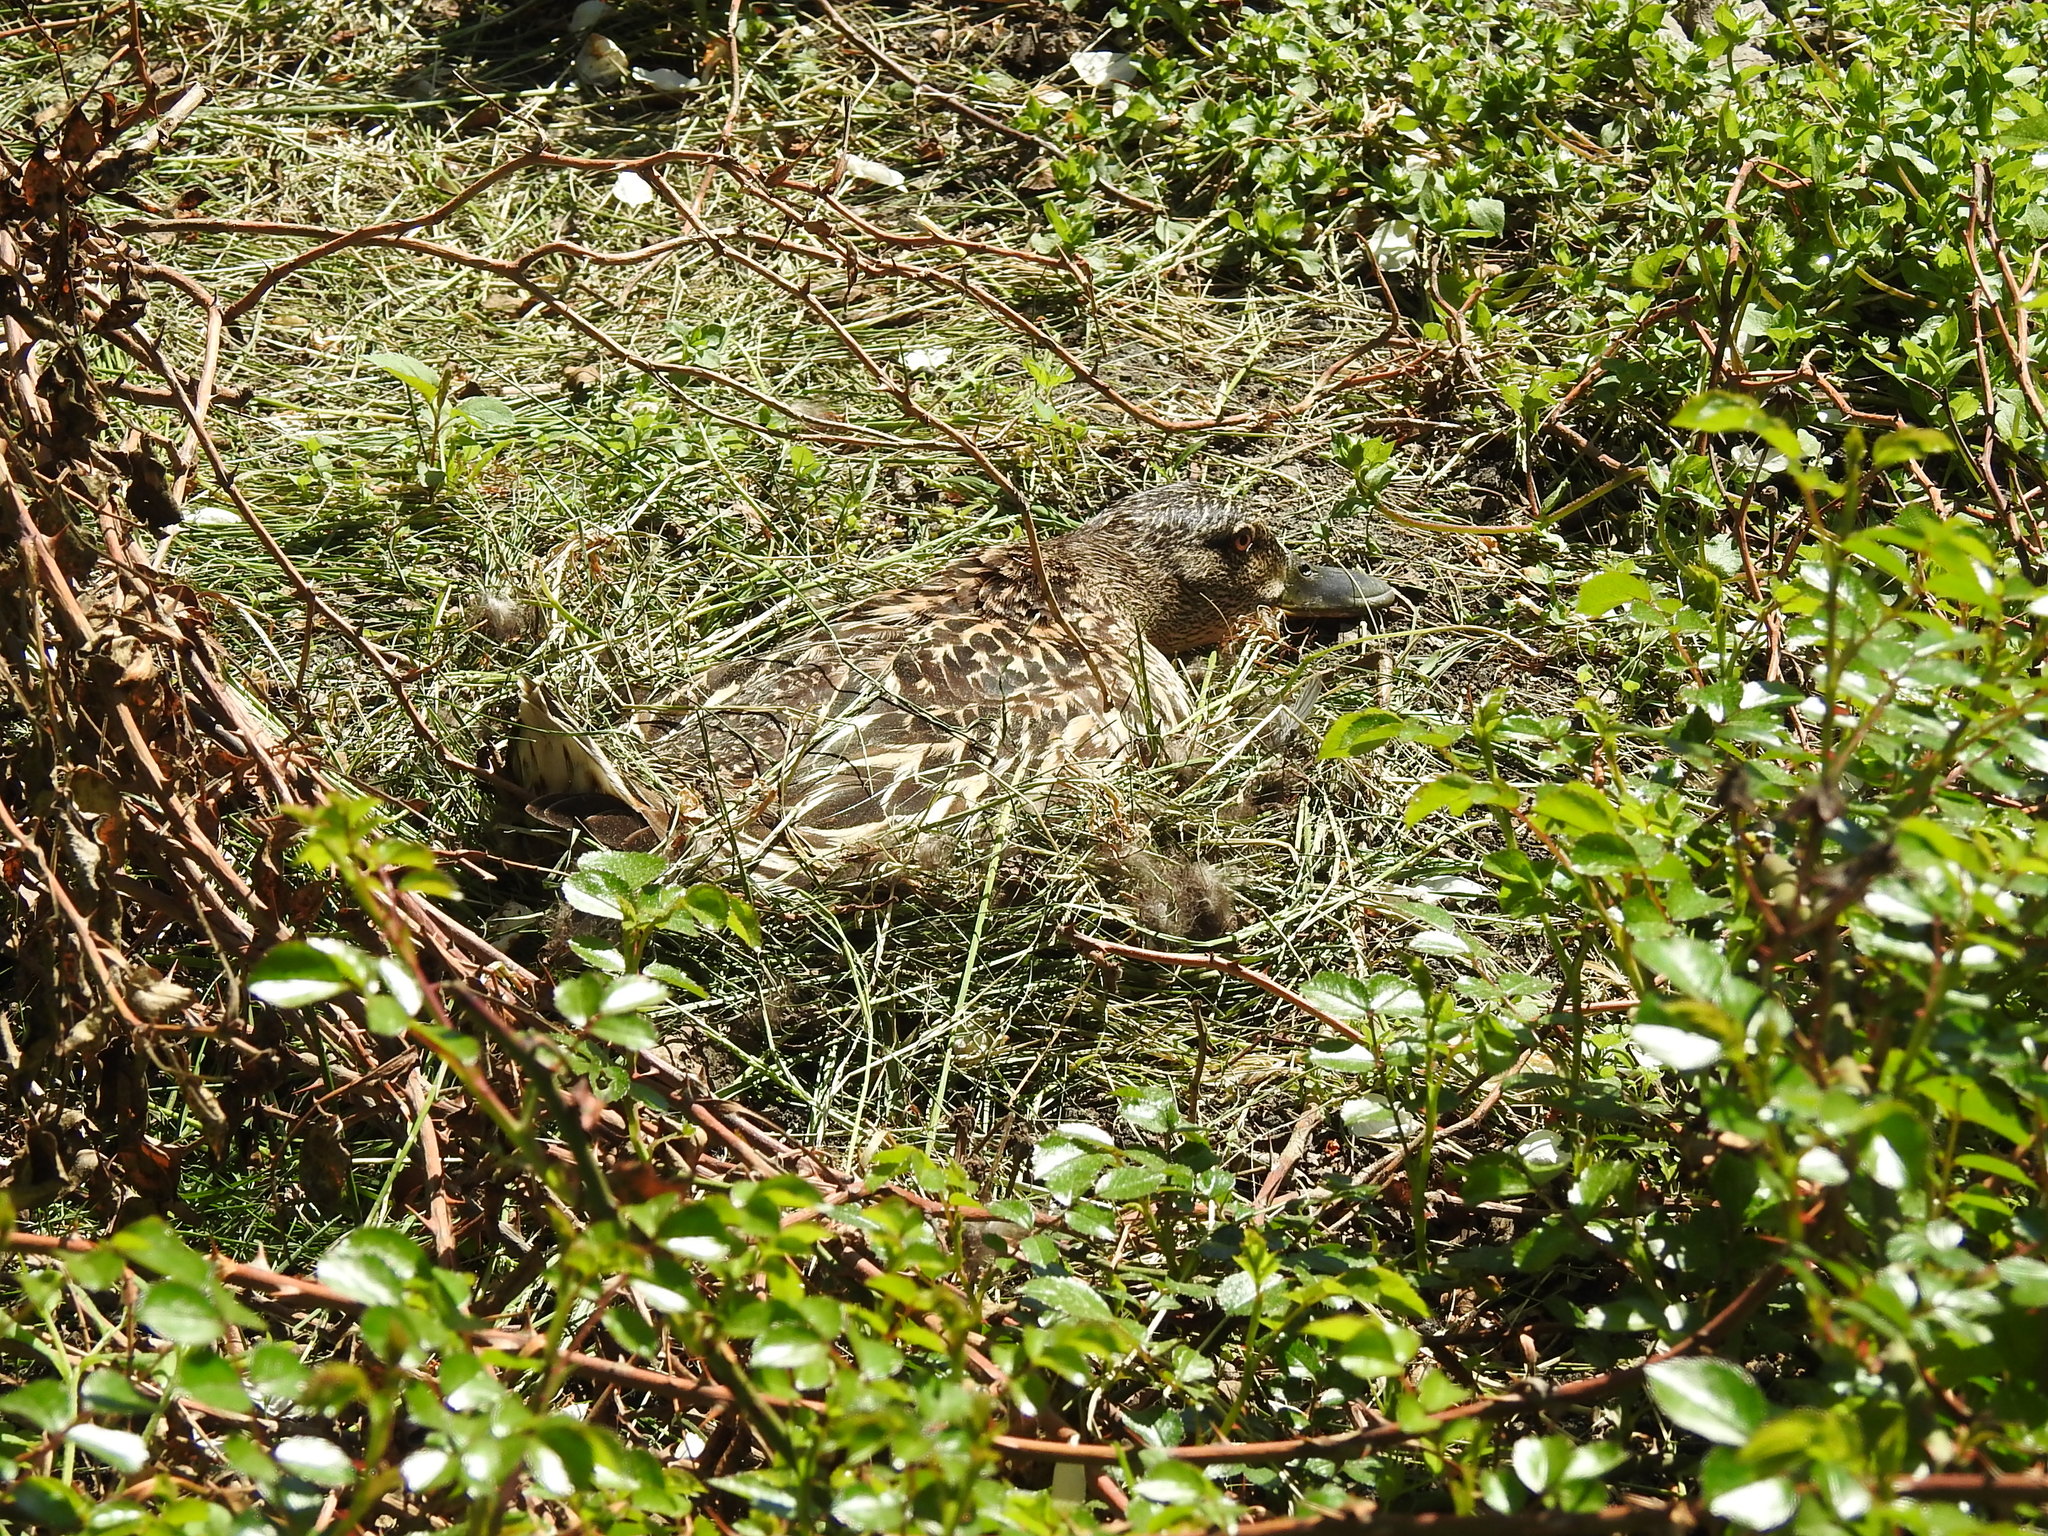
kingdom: Animalia
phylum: Chordata
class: Aves
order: Anseriformes
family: Anatidae
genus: Anas
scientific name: Anas platyrhynchos
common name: Mallard
